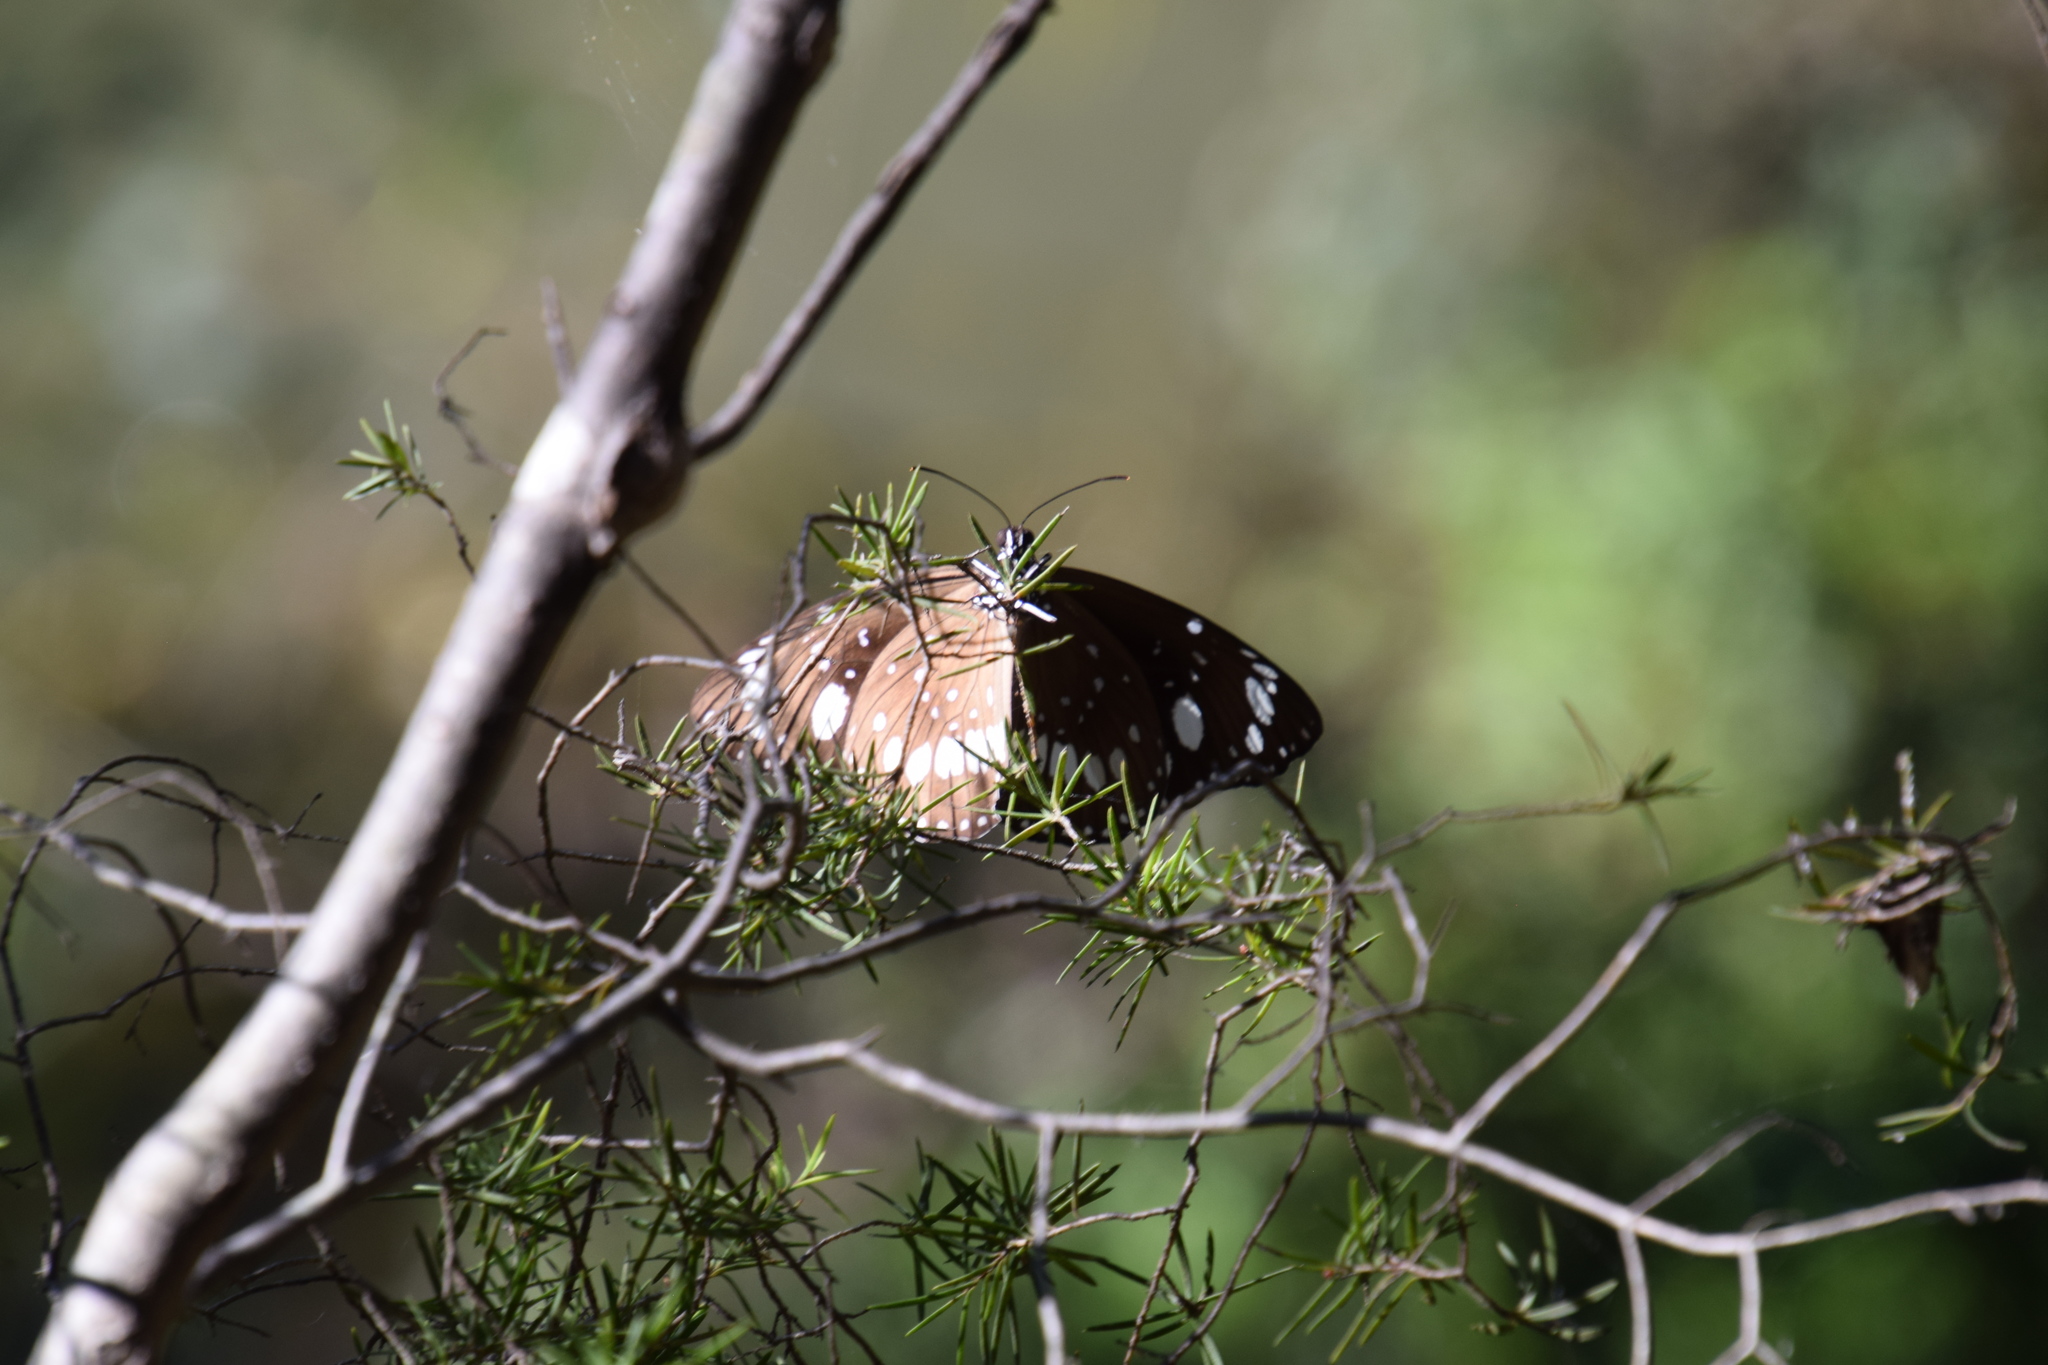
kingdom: Animalia
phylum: Arthropoda
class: Insecta
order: Lepidoptera
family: Nymphalidae
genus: Euploea
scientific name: Euploea core
